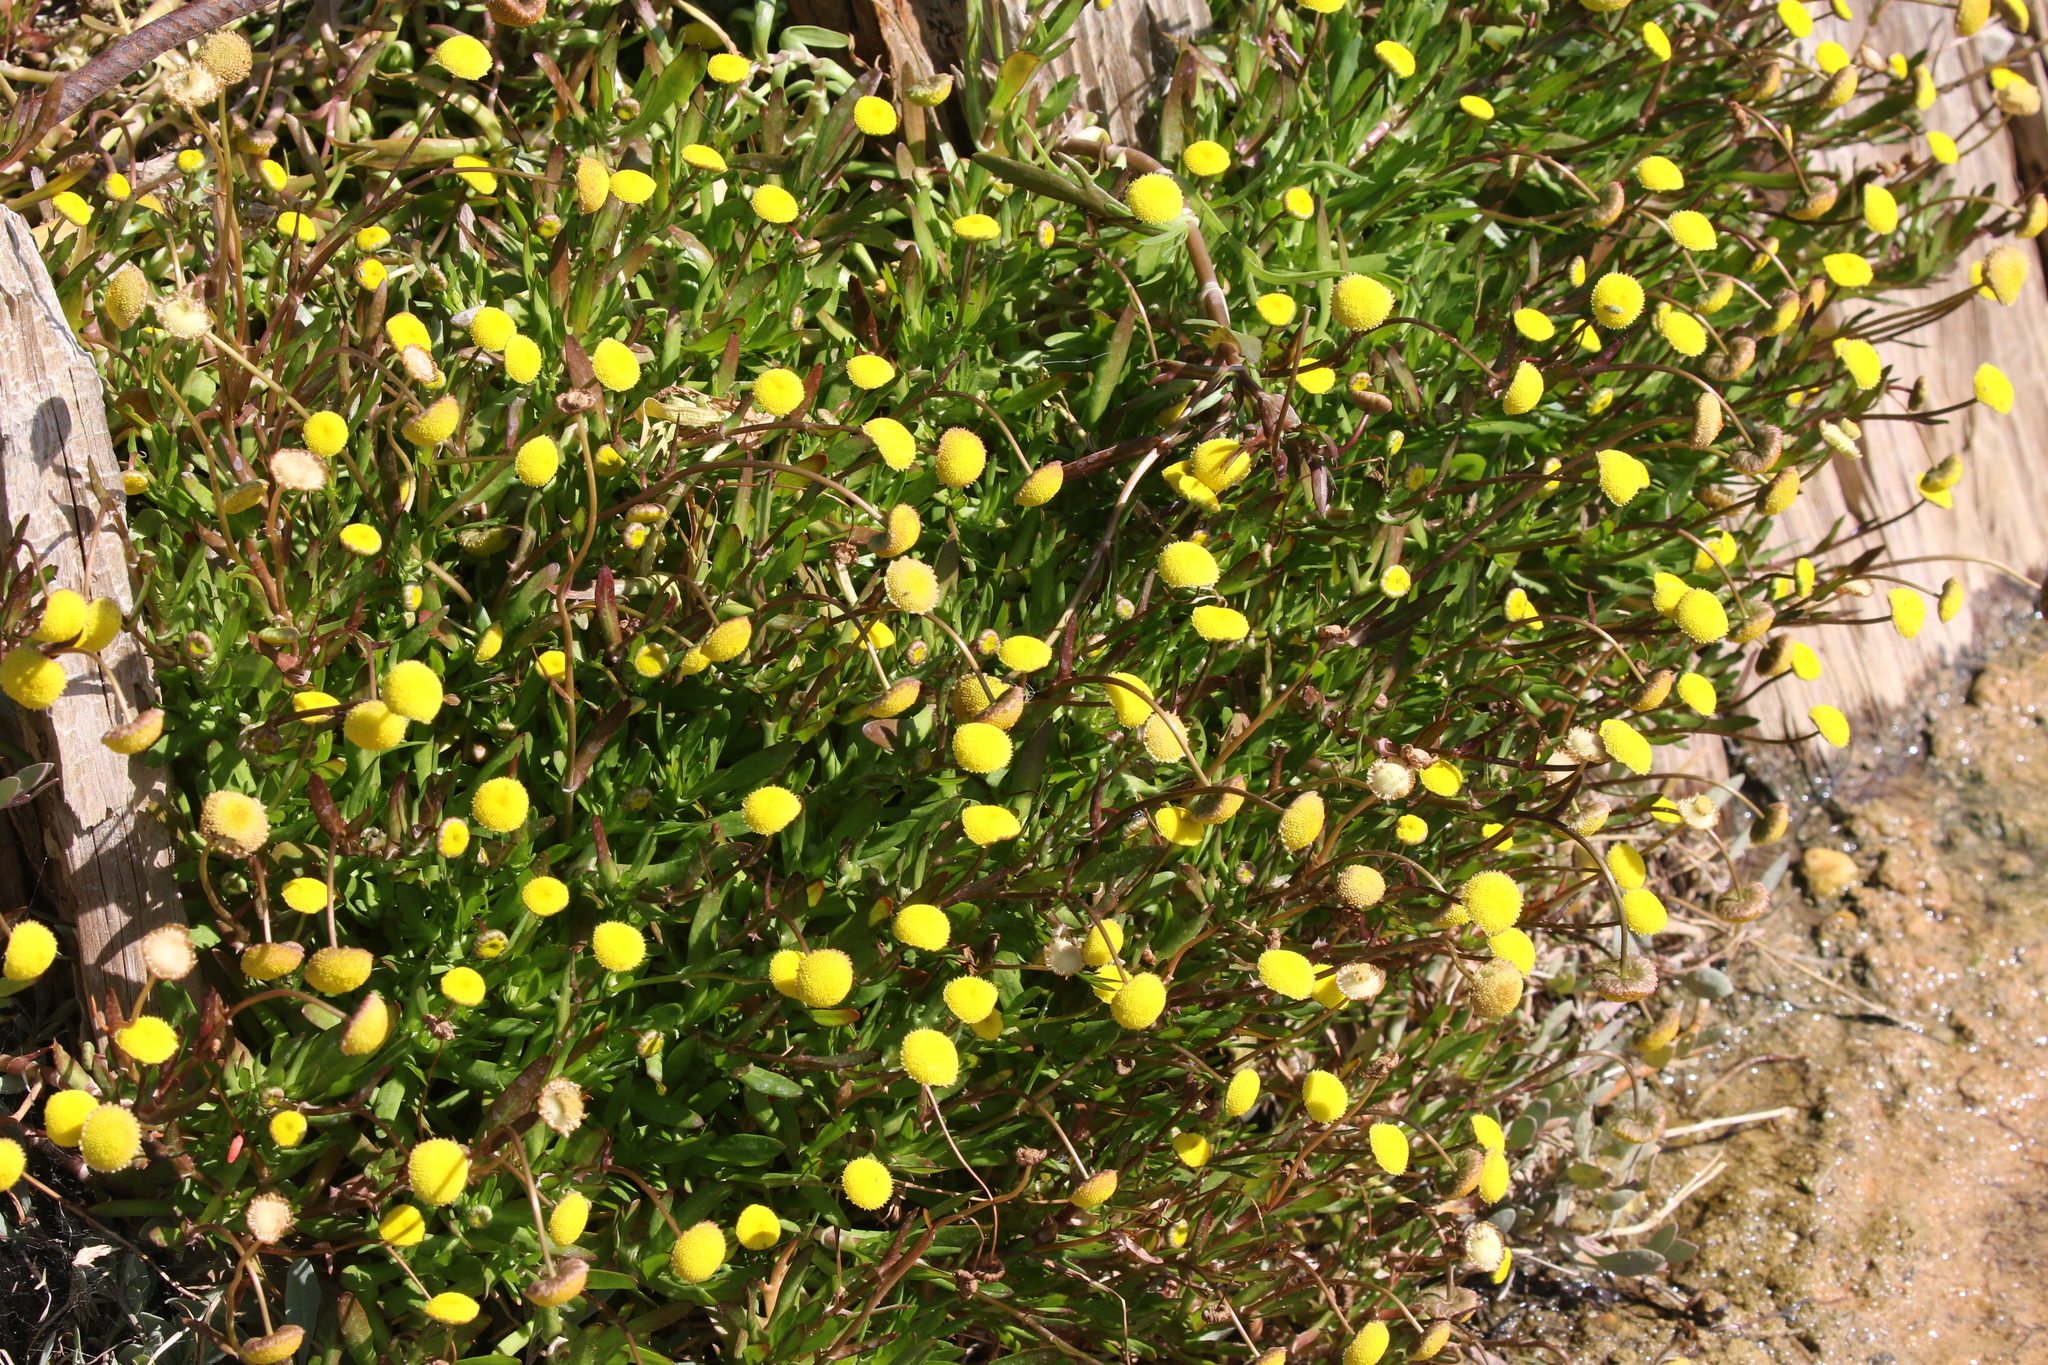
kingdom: Plantae
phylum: Tracheophyta
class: Magnoliopsida
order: Asterales
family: Asteraceae
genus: Cotula
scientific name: Cotula coronopifolia
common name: Buttonweed
